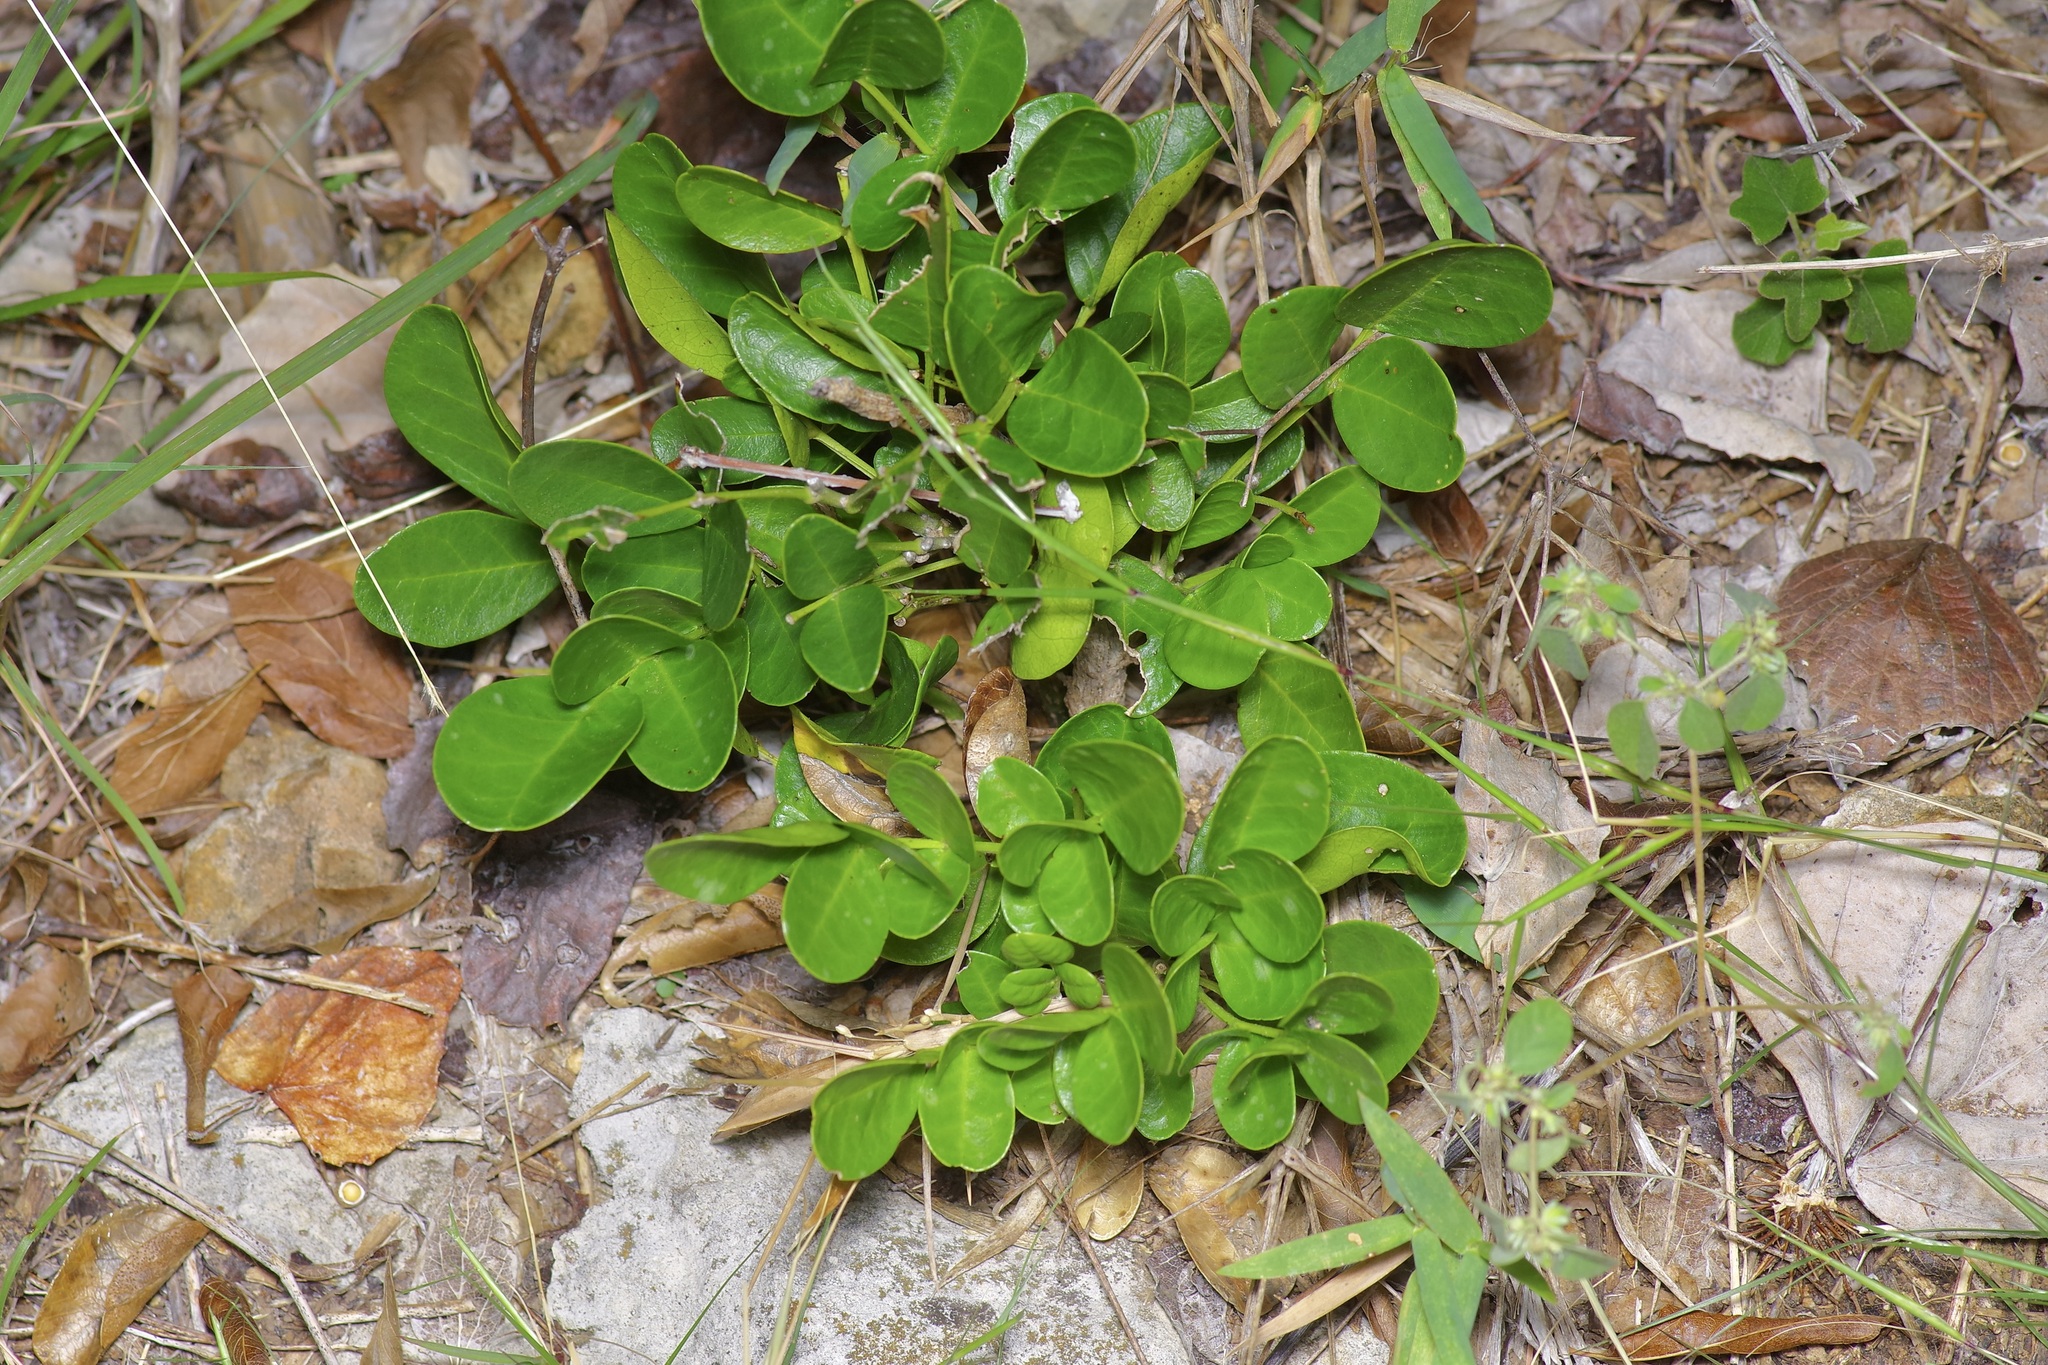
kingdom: Plantae
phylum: Tracheophyta
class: Magnoliopsida
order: Fabales
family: Fabaceae
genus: Dermatophyllum
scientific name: Dermatophyllum secundiflorum
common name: Texas-mountain-laurel
